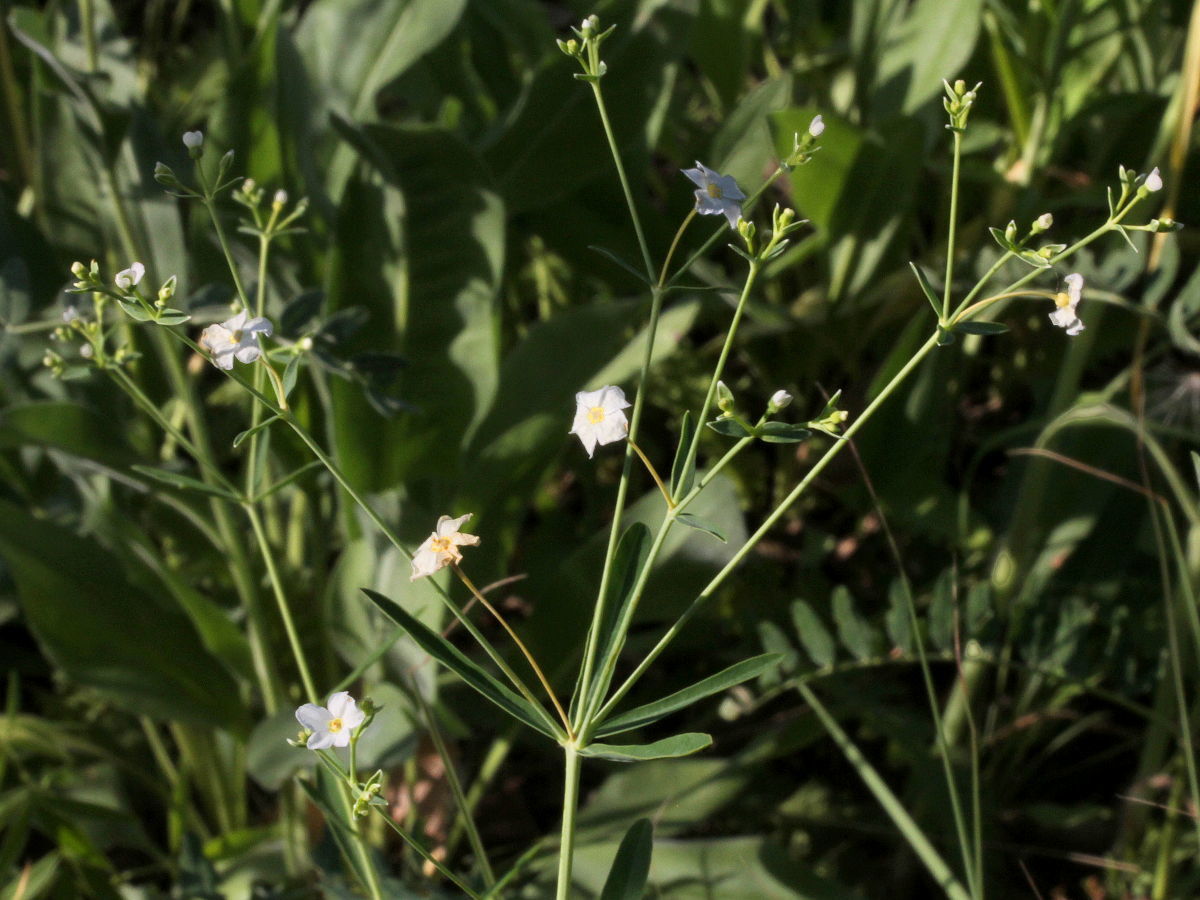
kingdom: Plantae
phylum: Tracheophyta
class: Magnoliopsida
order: Malpighiales
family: Euphorbiaceae
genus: Euphorbia
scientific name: Euphorbia corollata
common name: Flowering spurge
